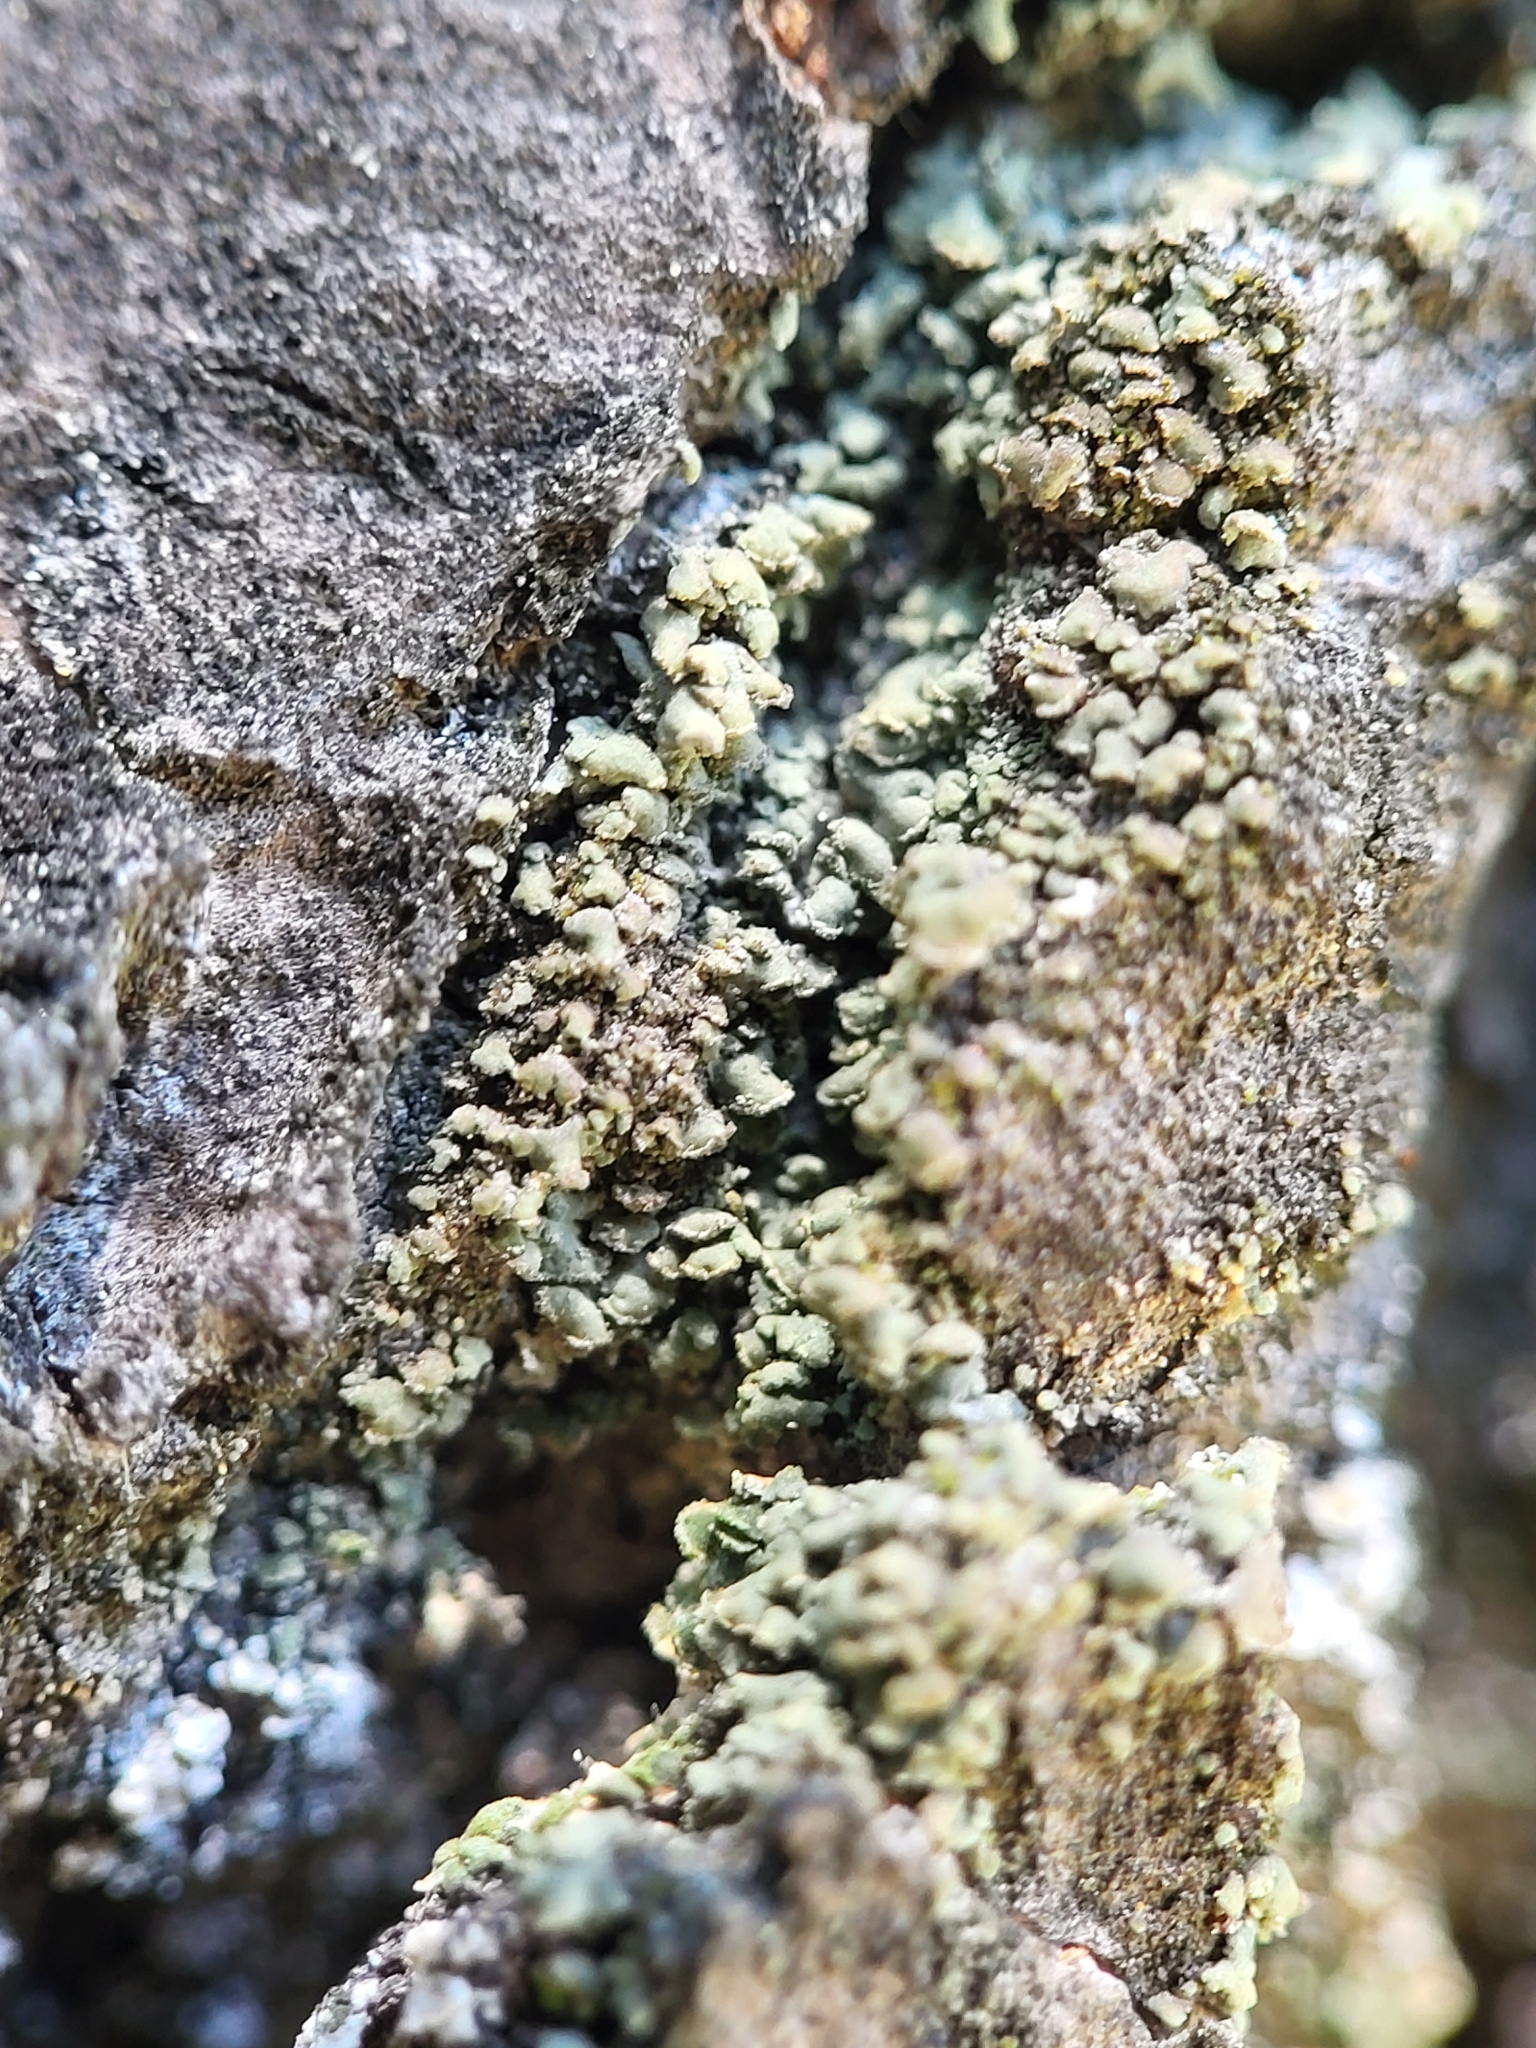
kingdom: Fungi
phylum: Ascomycota
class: Lecanoromycetes
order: Umbilicariales
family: Ophioparmaceae
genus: Hypocenomyce
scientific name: Hypocenomyce scalaris
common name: Common clam lichen
